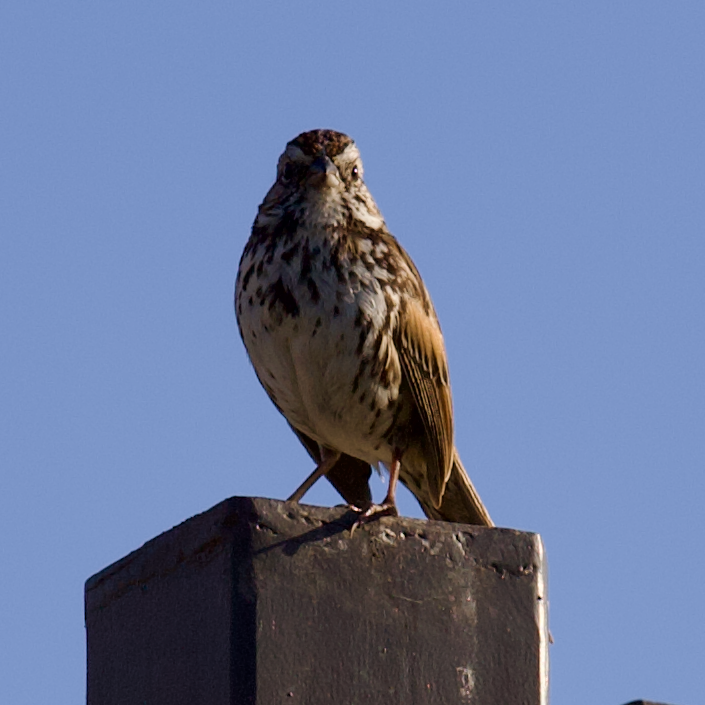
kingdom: Animalia
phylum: Chordata
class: Aves
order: Passeriformes
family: Passerellidae
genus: Melospiza
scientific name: Melospiza melodia
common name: Song sparrow
